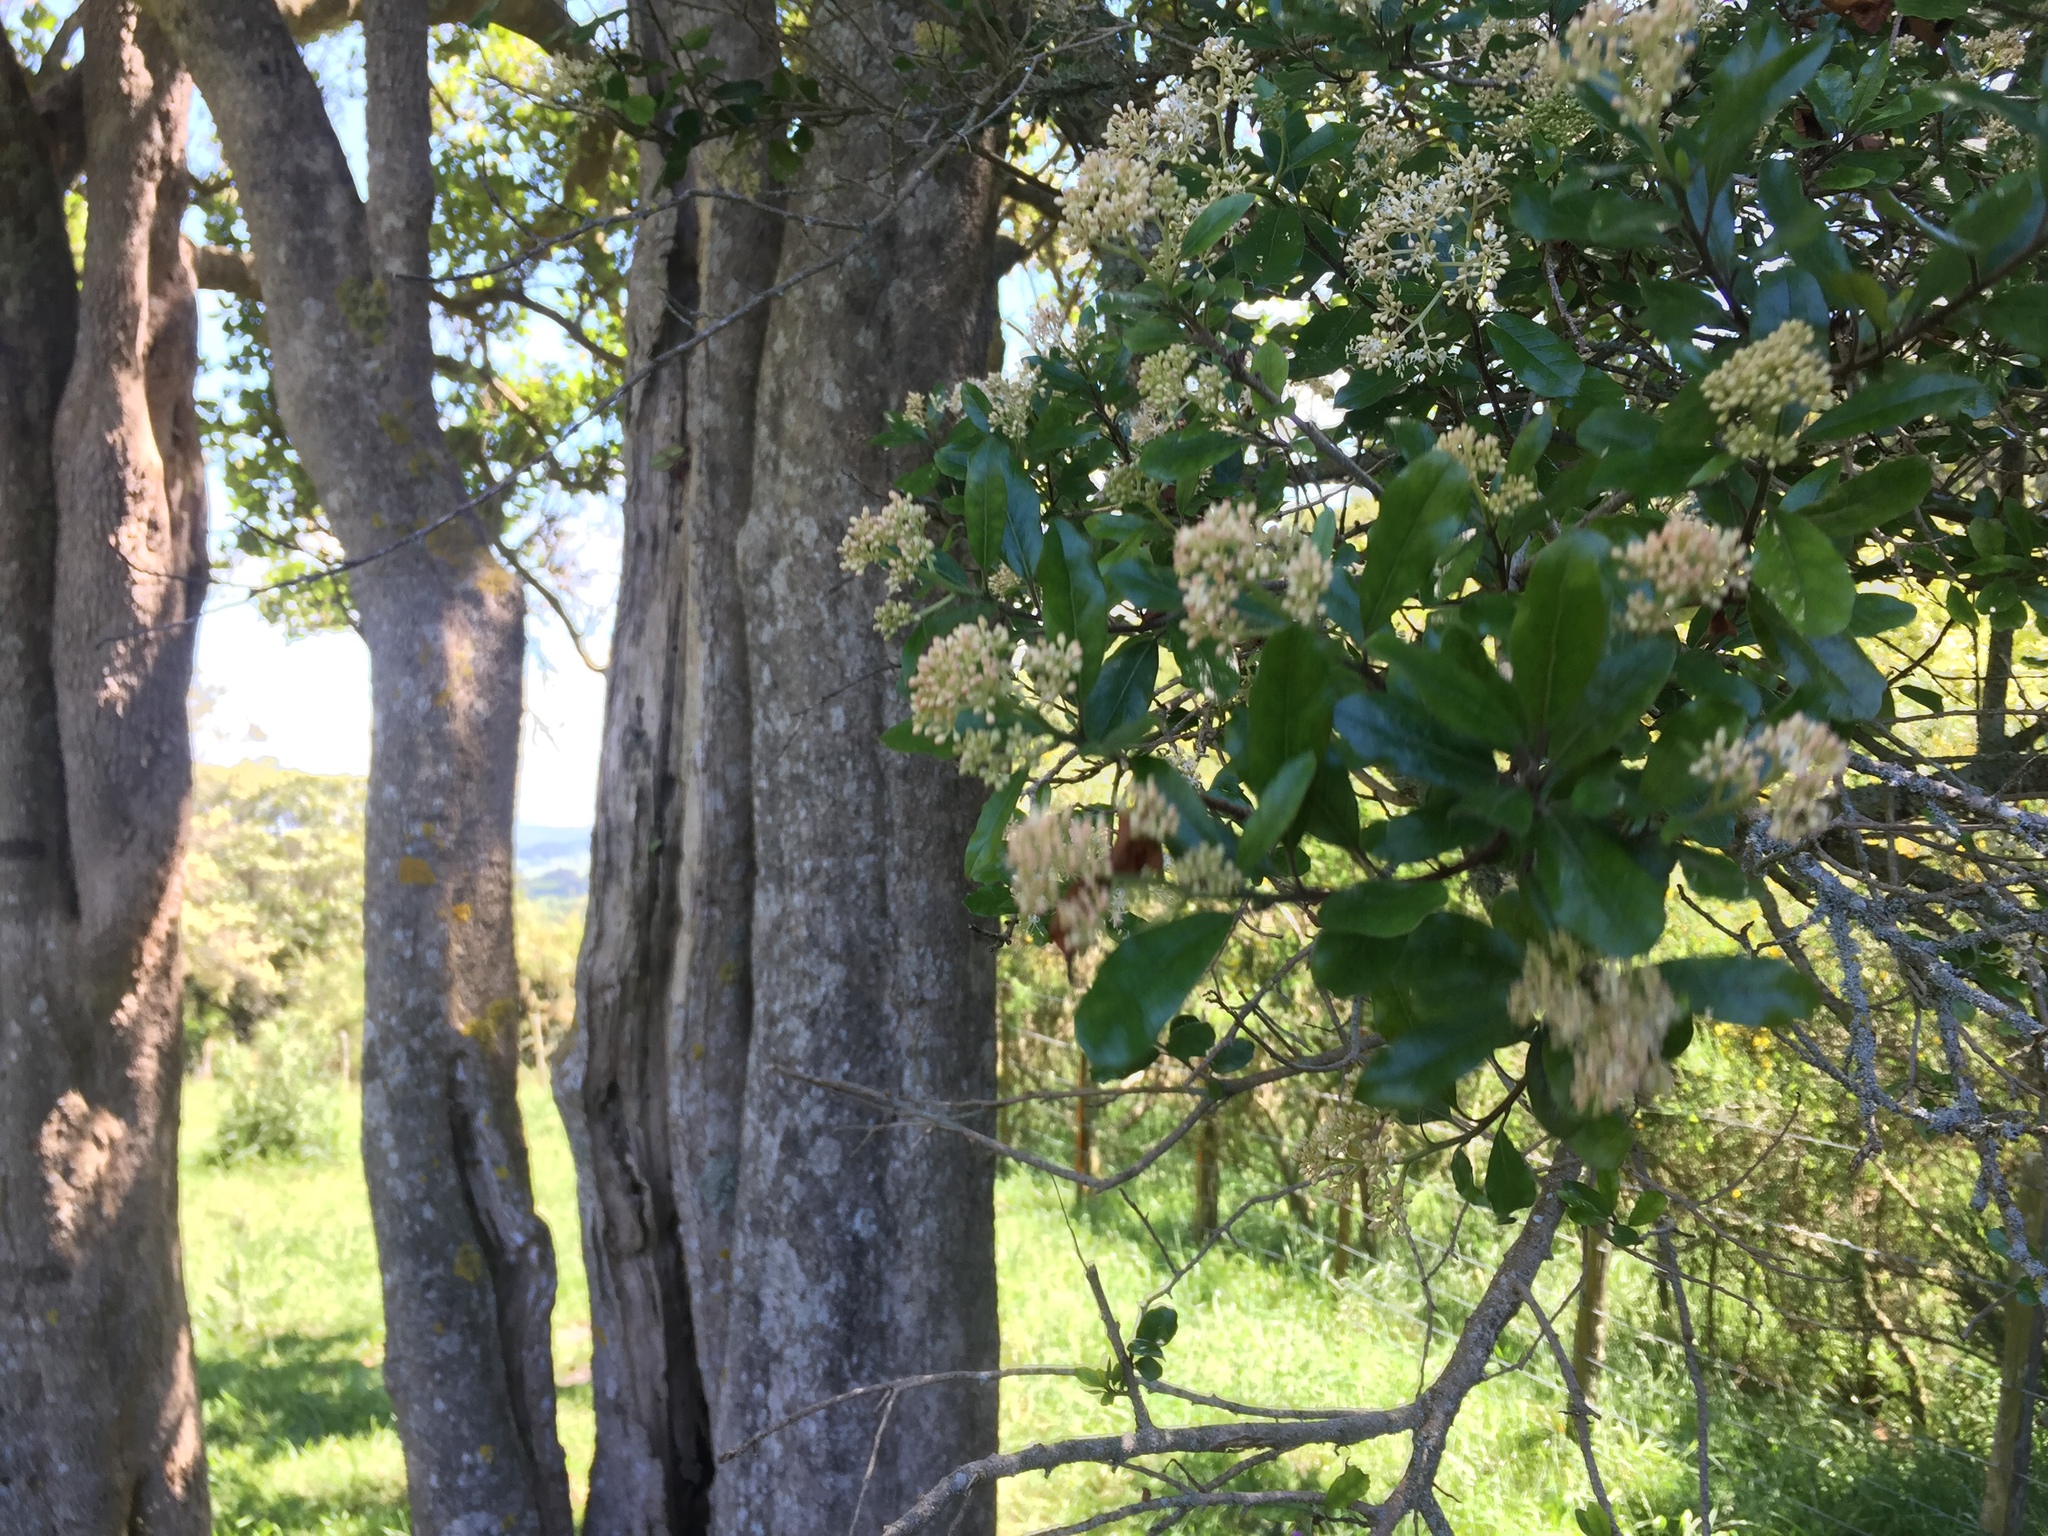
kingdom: Plantae
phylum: Tracheophyta
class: Magnoliopsida
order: Apiales
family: Pennantiaceae
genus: Pennantia
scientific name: Pennantia corymbosa
